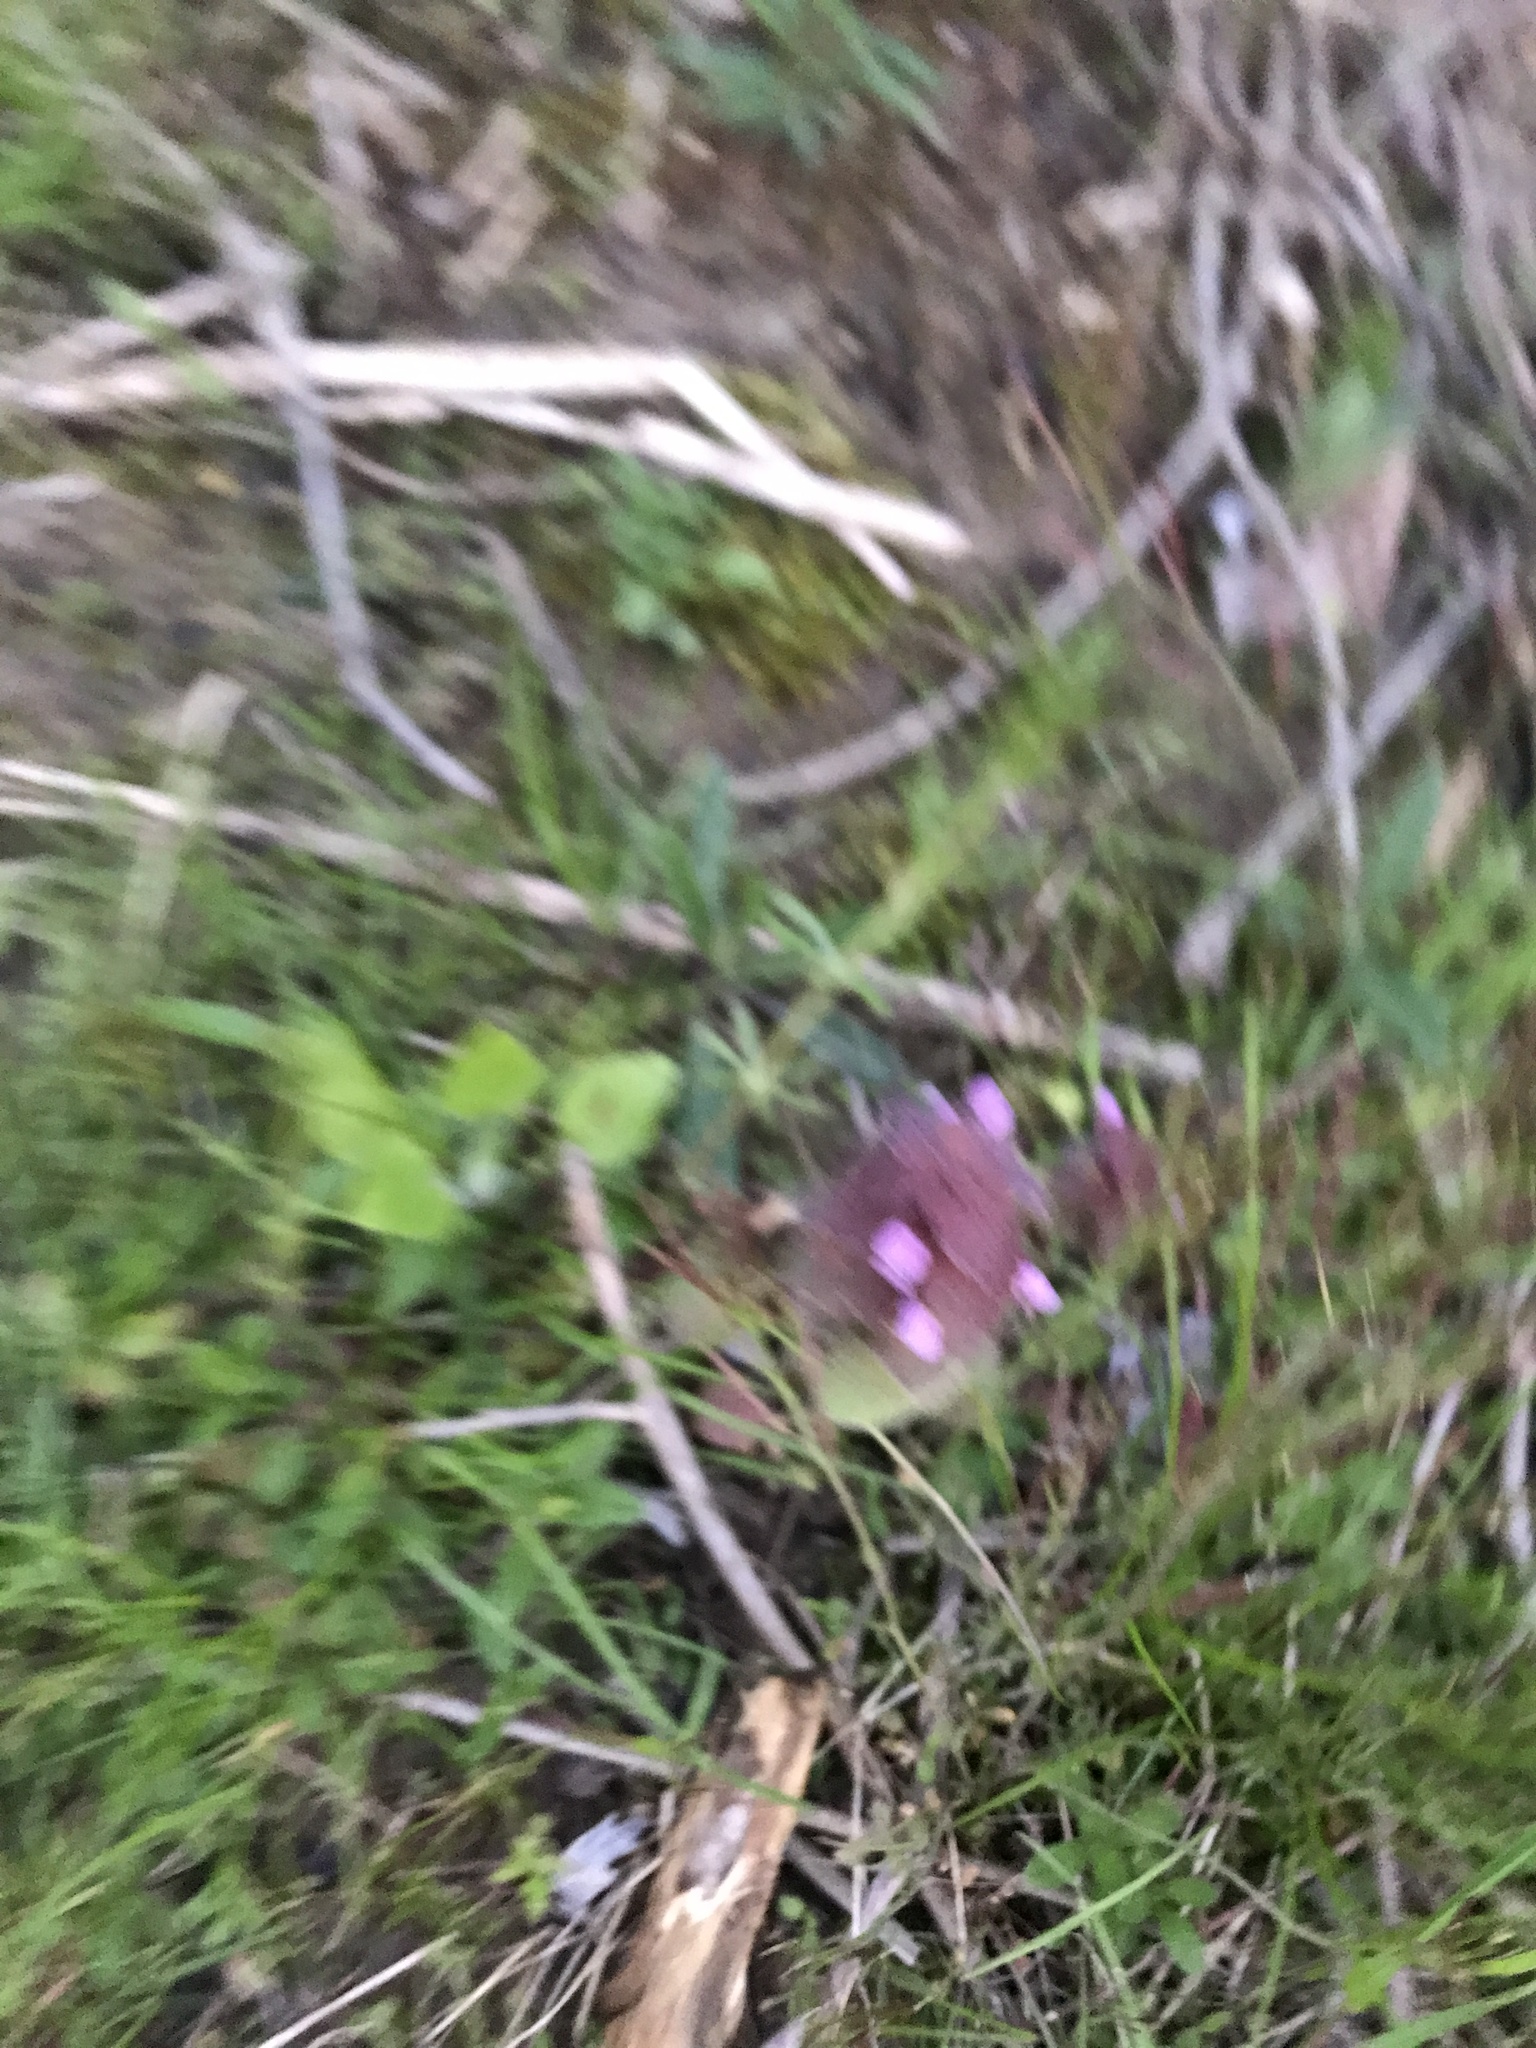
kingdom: Plantae
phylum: Tracheophyta
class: Magnoliopsida
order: Lamiales
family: Lamiaceae
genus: Lamium
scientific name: Lamium purpureum
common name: Red dead-nettle
